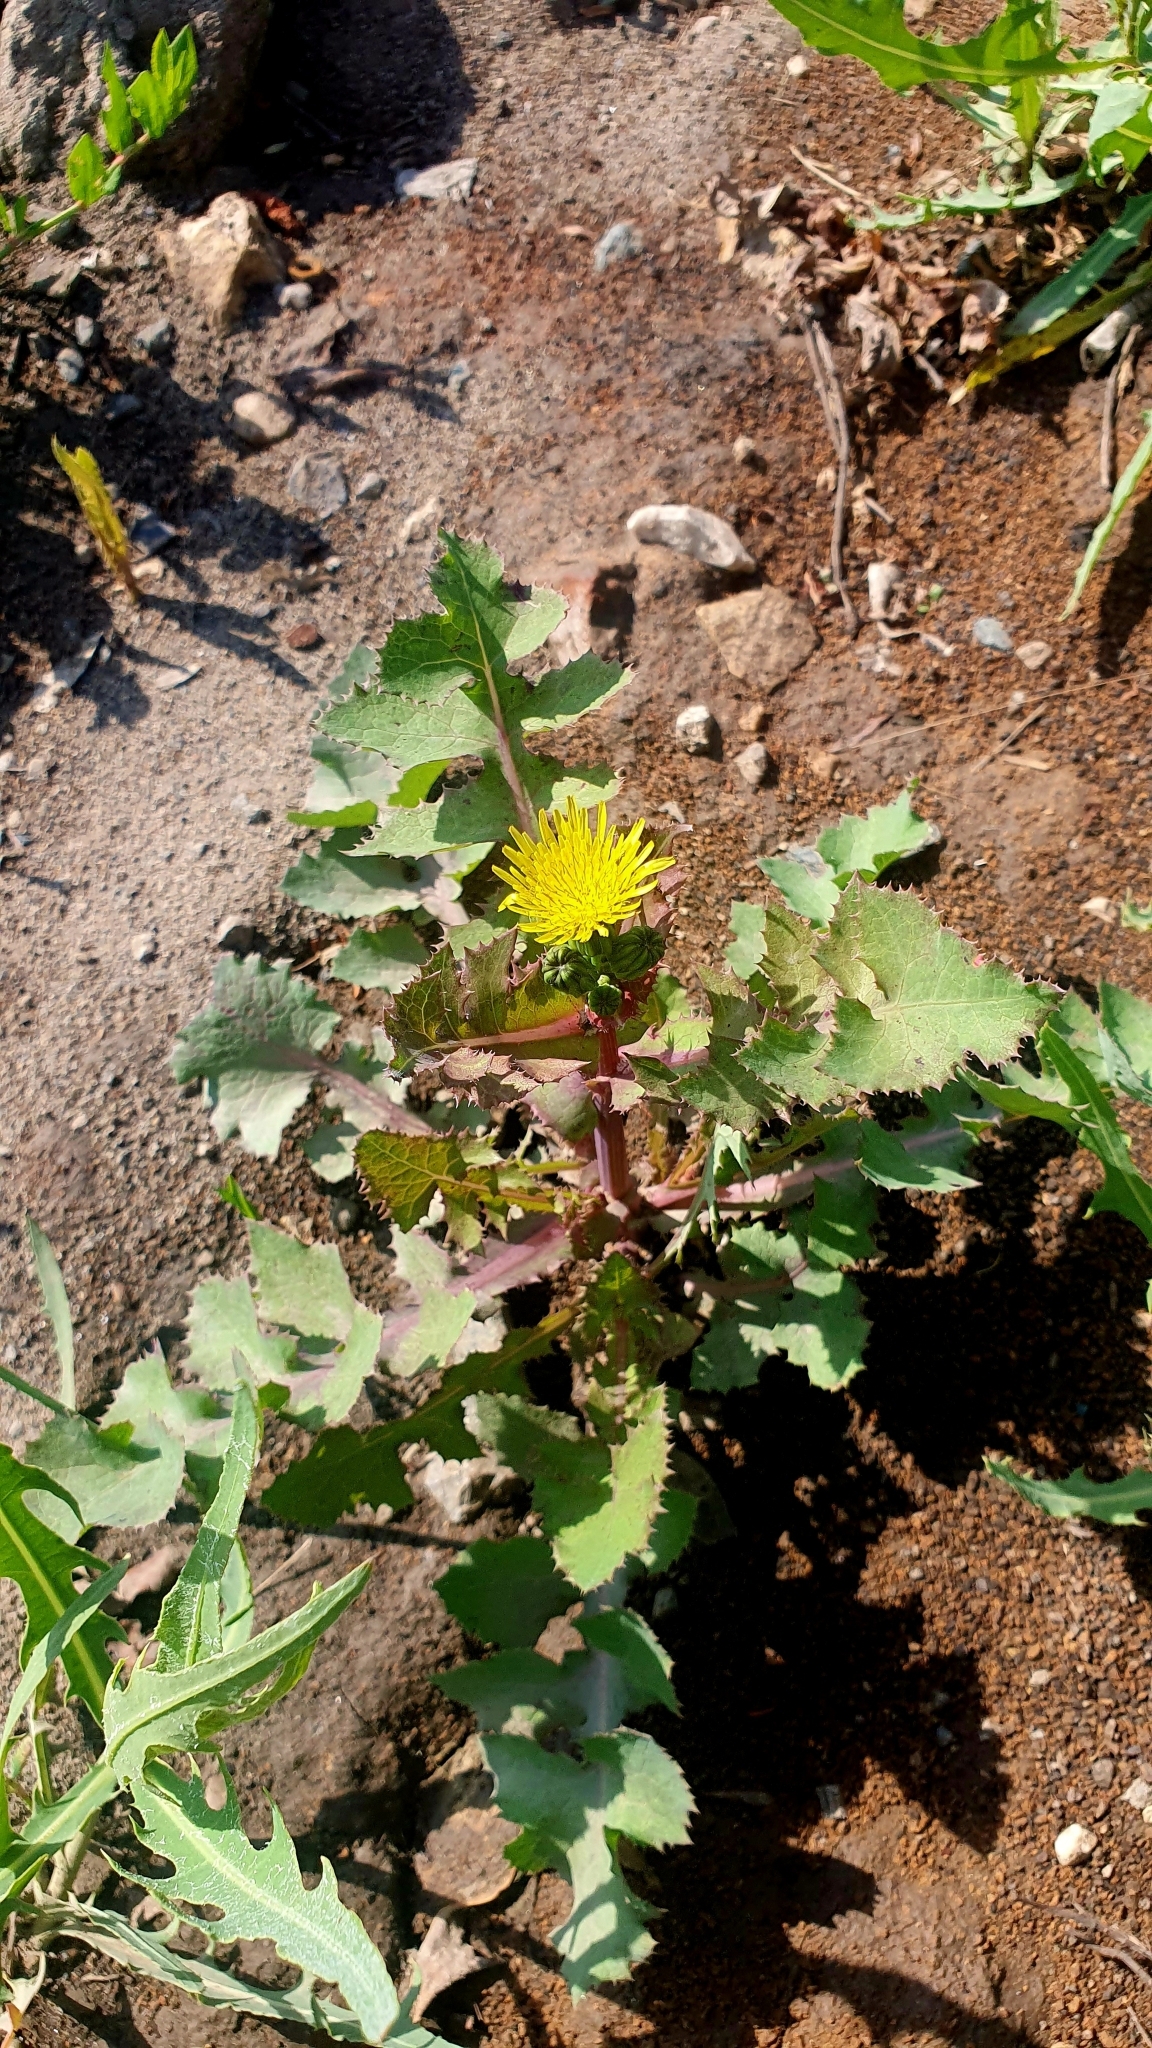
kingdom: Plantae
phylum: Tracheophyta
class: Magnoliopsida
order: Asterales
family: Asteraceae
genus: Sonchus
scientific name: Sonchus oleraceus
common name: Common sowthistle
